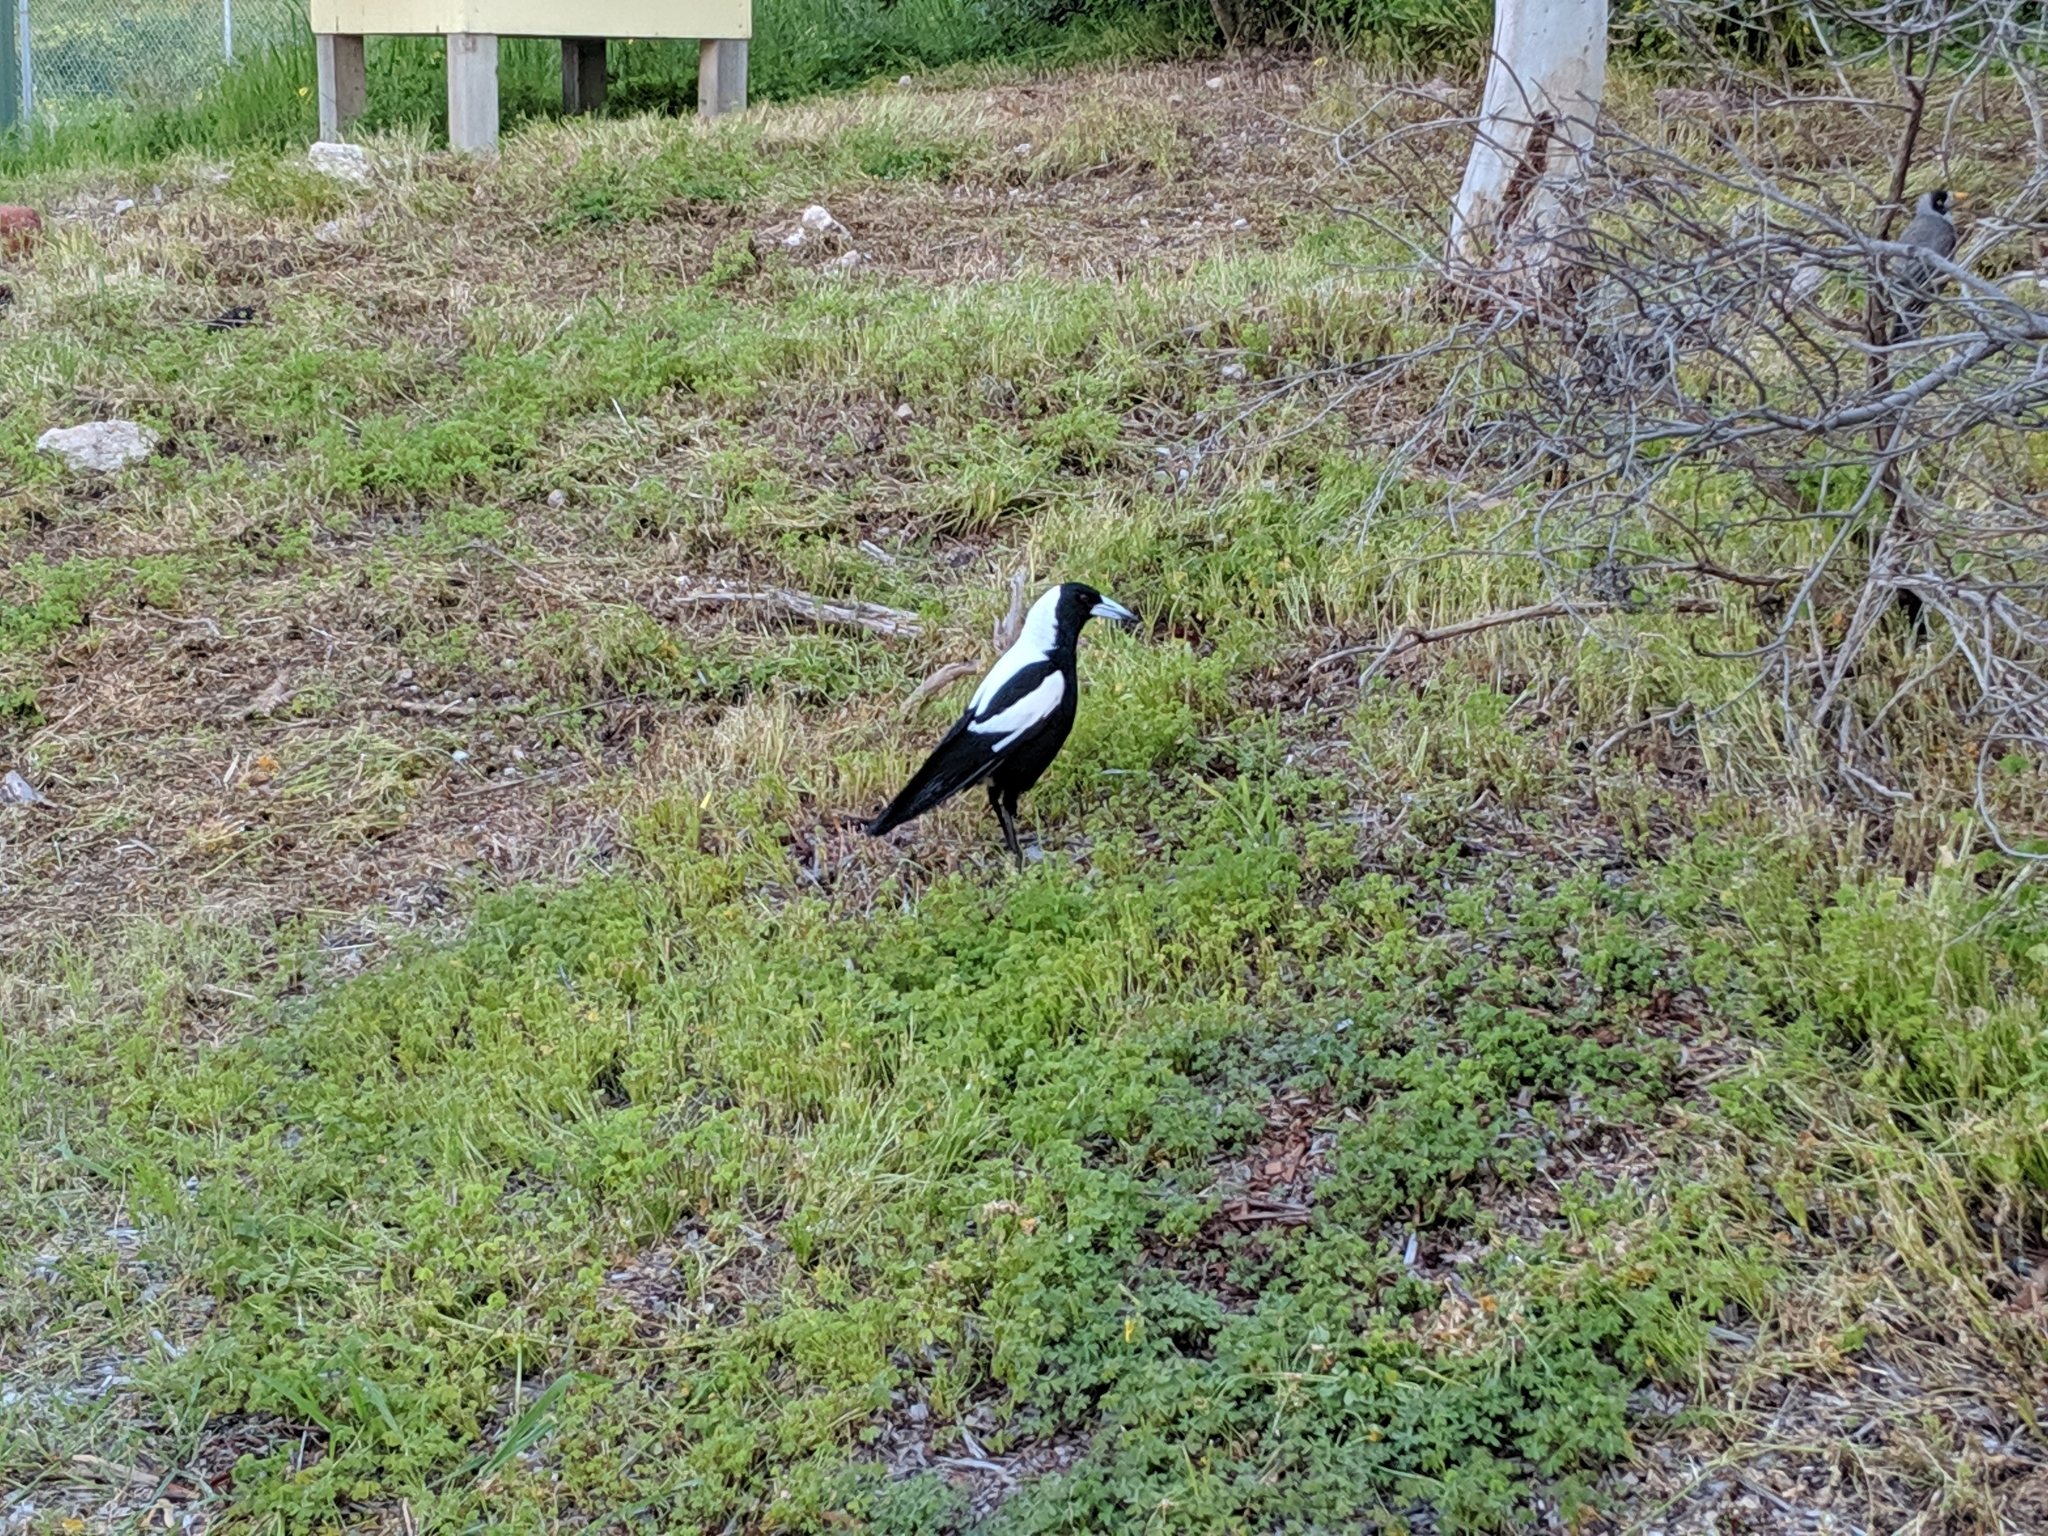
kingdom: Animalia
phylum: Chordata
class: Aves
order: Passeriformes
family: Cracticidae
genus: Gymnorhina
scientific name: Gymnorhina tibicen
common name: Australian magpie
